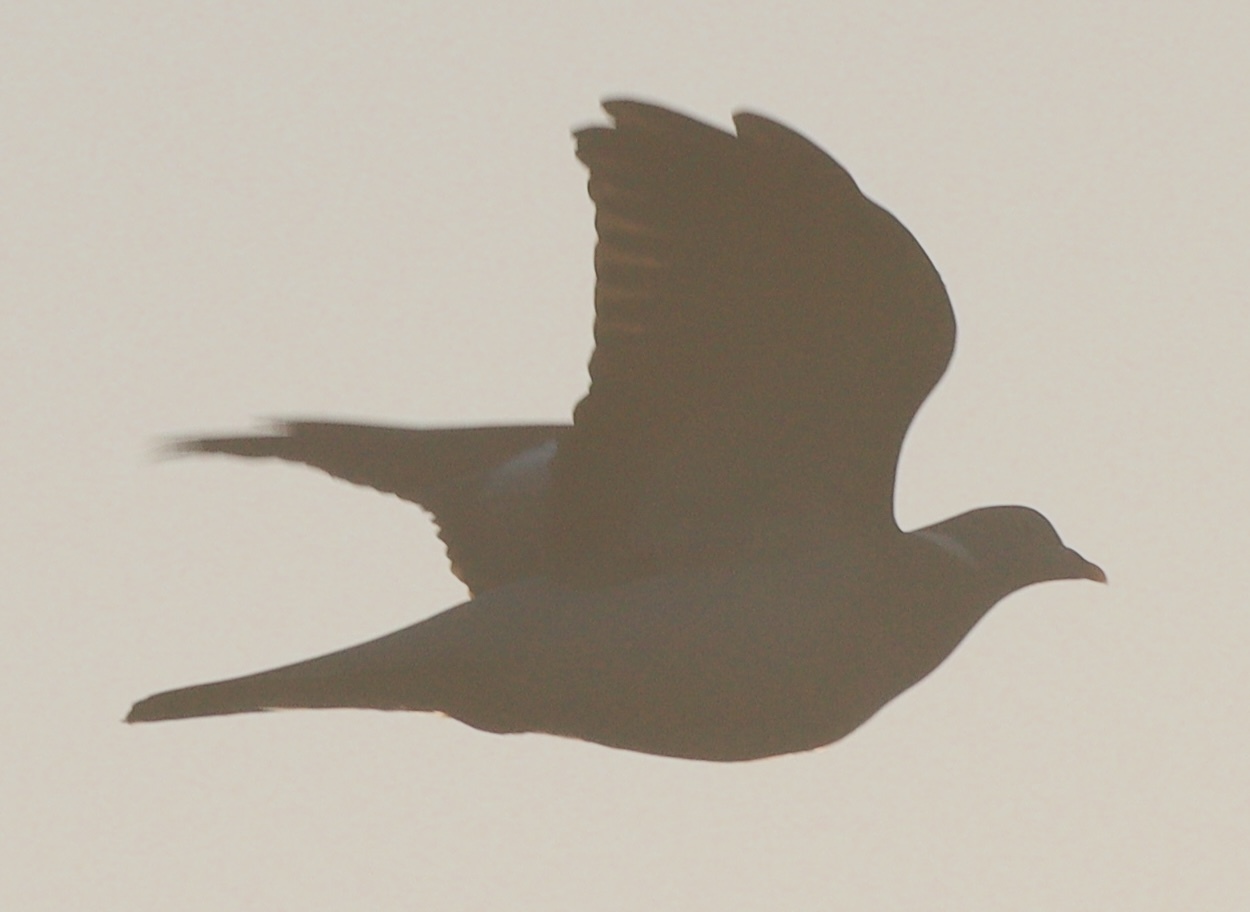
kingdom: Animalia
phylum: Chordata
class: Aves
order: Columbiformes
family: Columbidae
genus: Columba
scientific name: Columba palumbus
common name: Common wood pigeon
